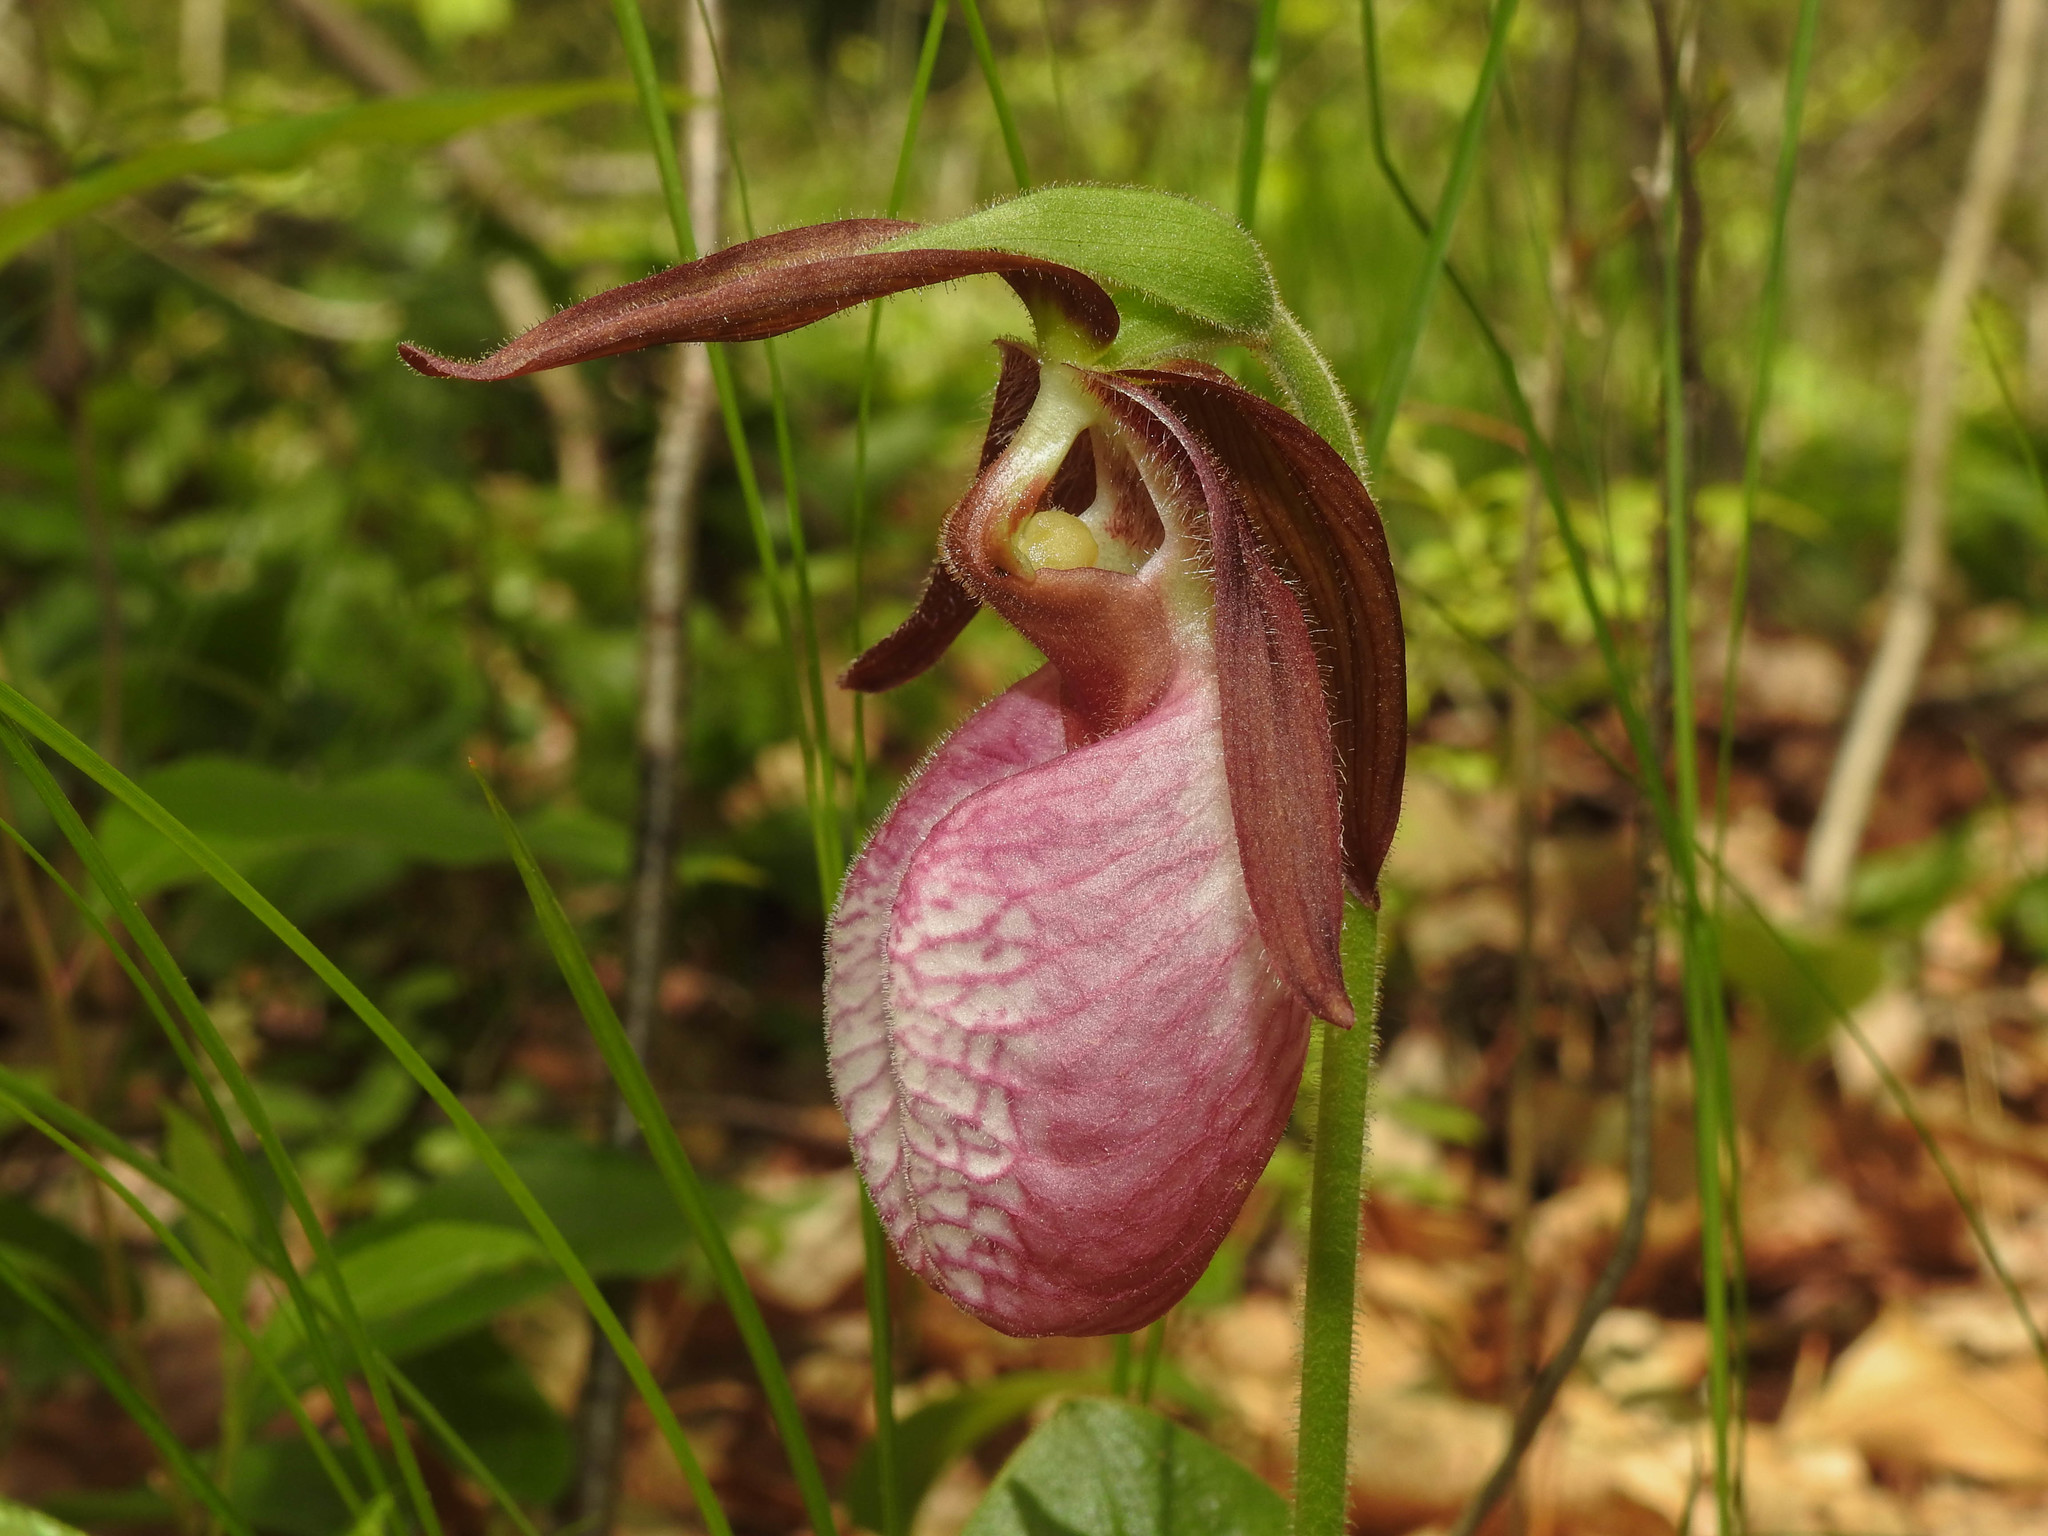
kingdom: Plantae
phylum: Tracheophyta
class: Liliopsida
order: Asparagales
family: Orchidaceae
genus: Cypripedium
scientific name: Cypripedium acaule
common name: Pink lady's-slipper
